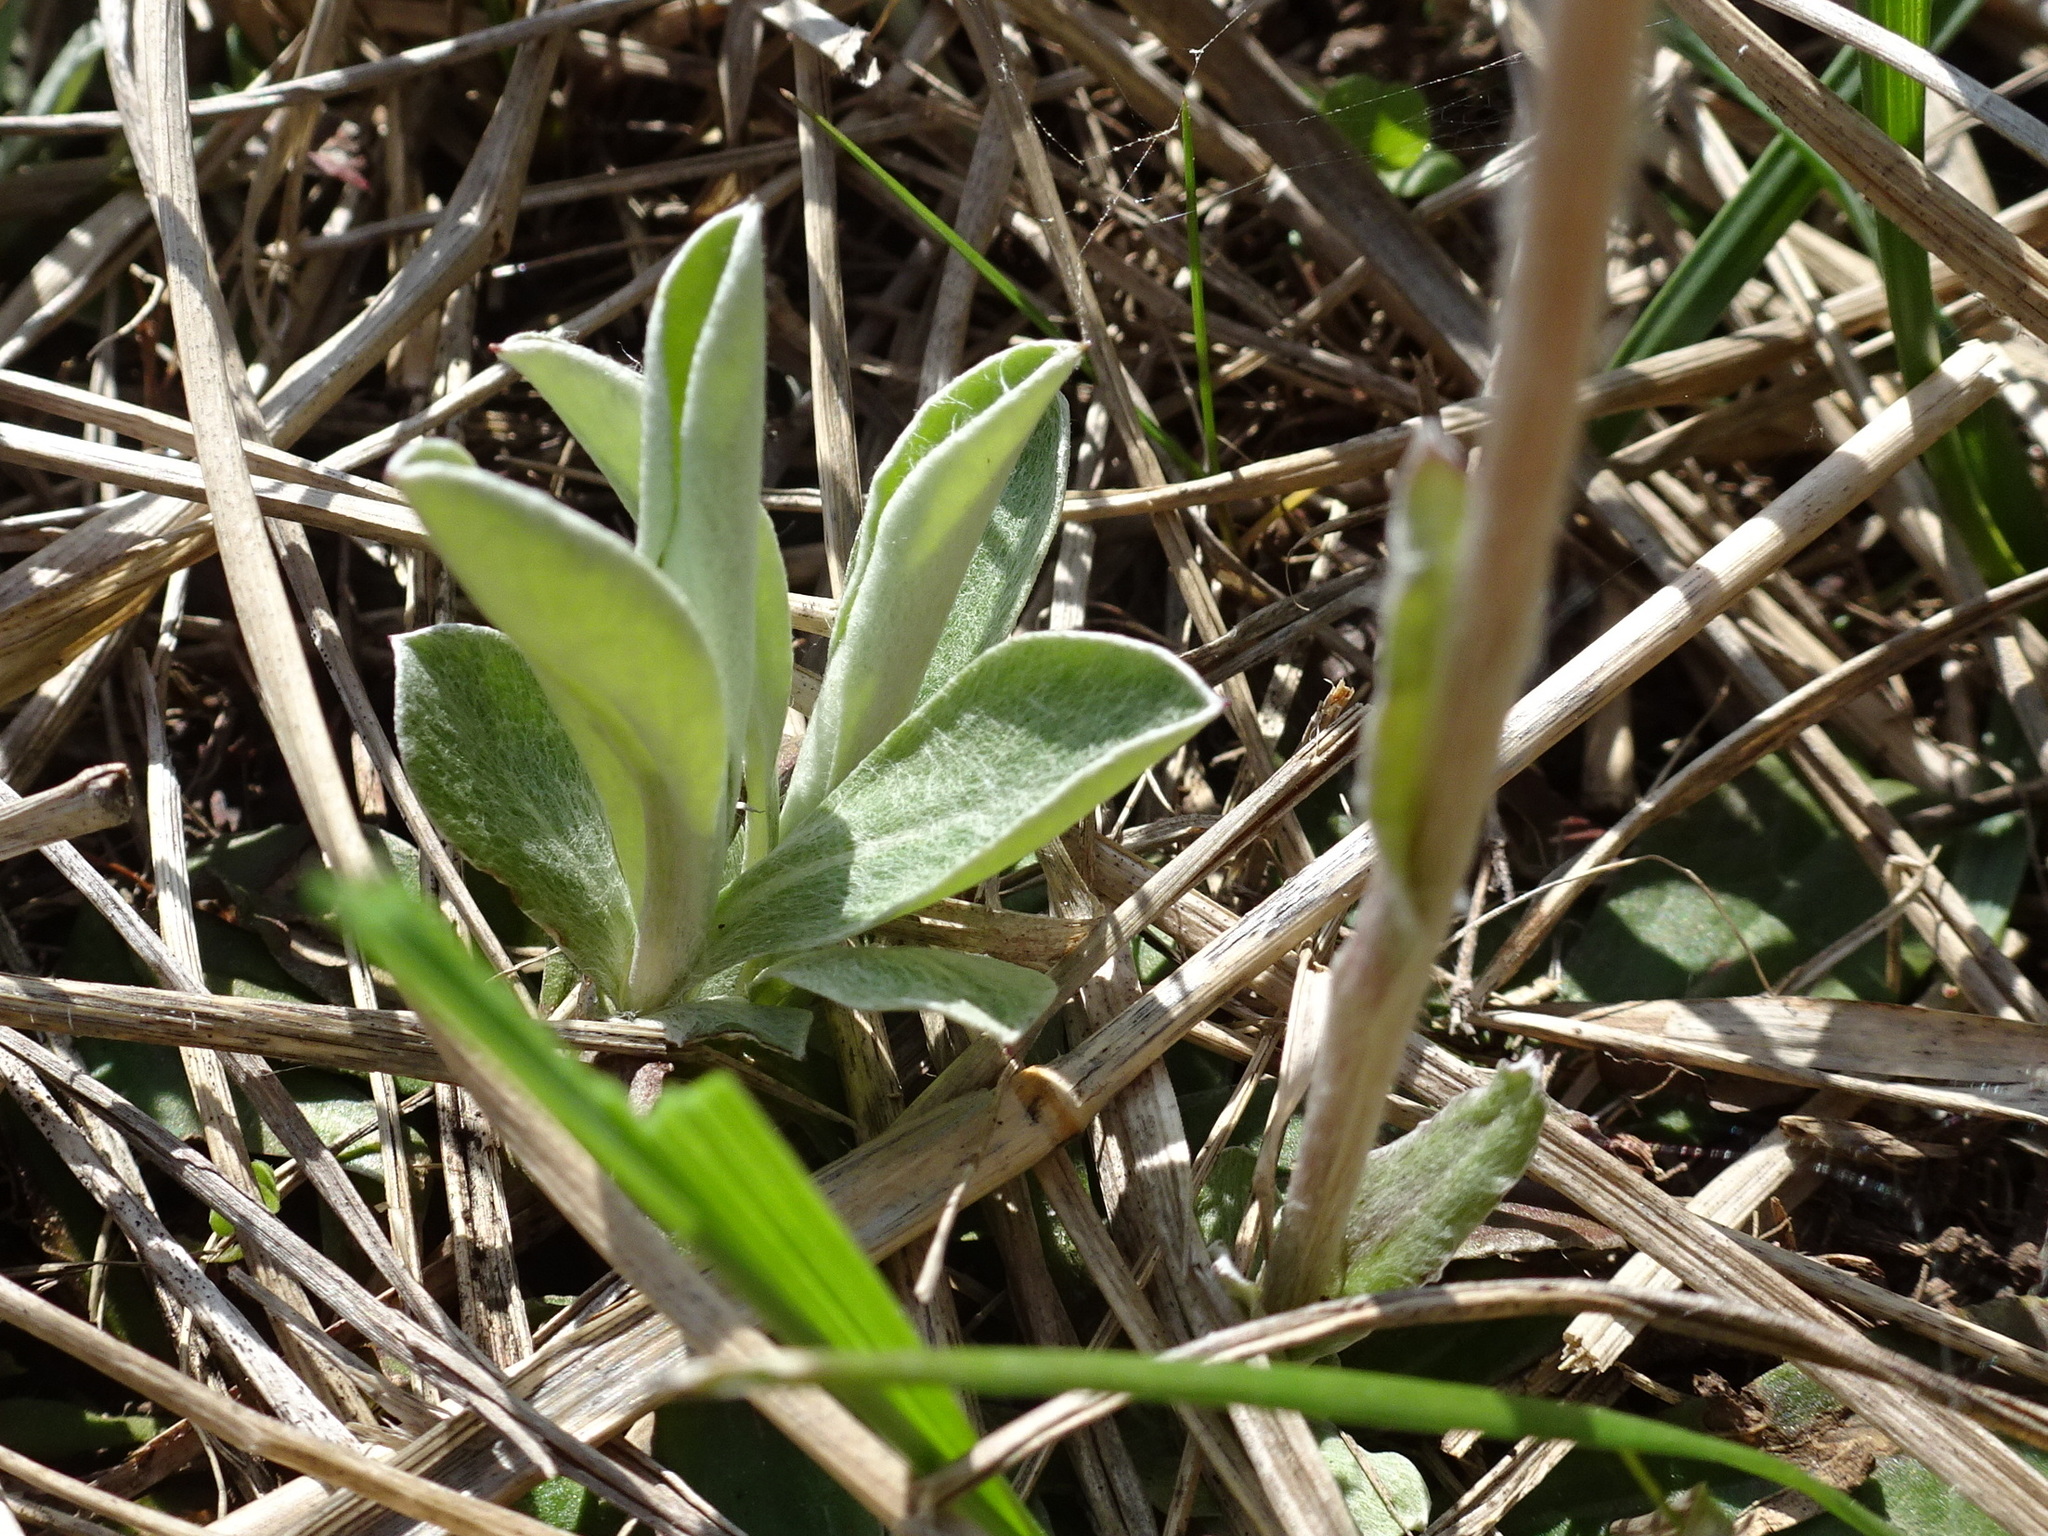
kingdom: Plantae
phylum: Tracheophyta
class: Magnoliopsida
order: Asterales
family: Asteraceae
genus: Antennaria
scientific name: Antennaria neglecta
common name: Field pussytoes
